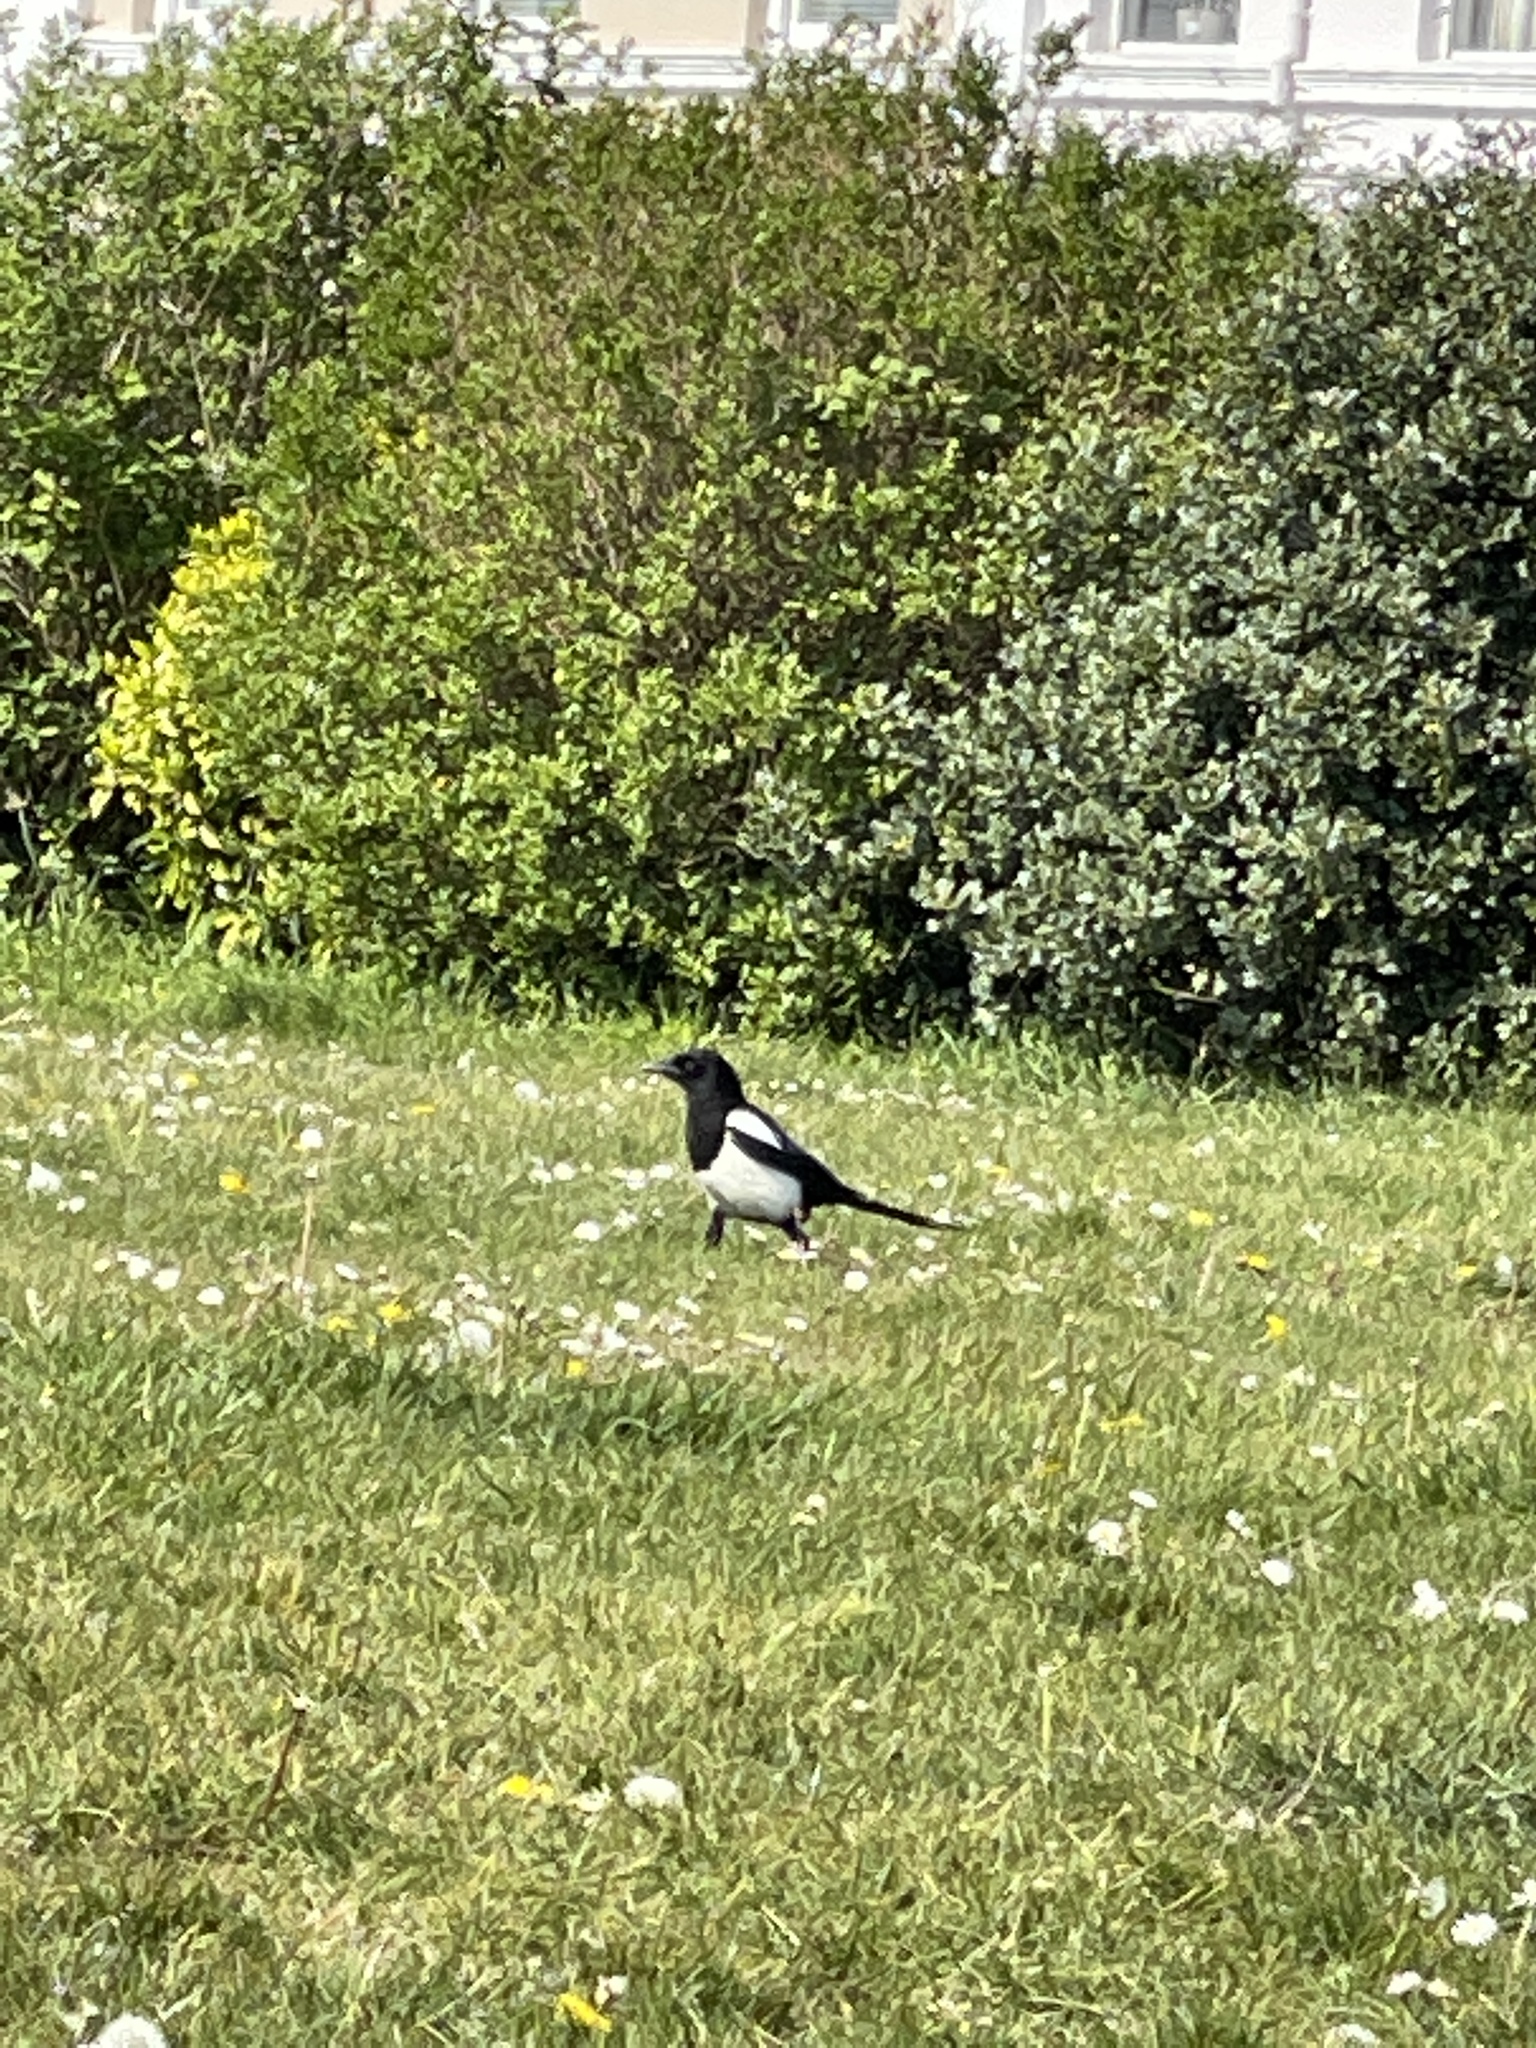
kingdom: Animalia
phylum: Chordata
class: Aves
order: Passeriformes
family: Corvidae
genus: Pica
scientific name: Pica pica
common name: Eurasian magpie
